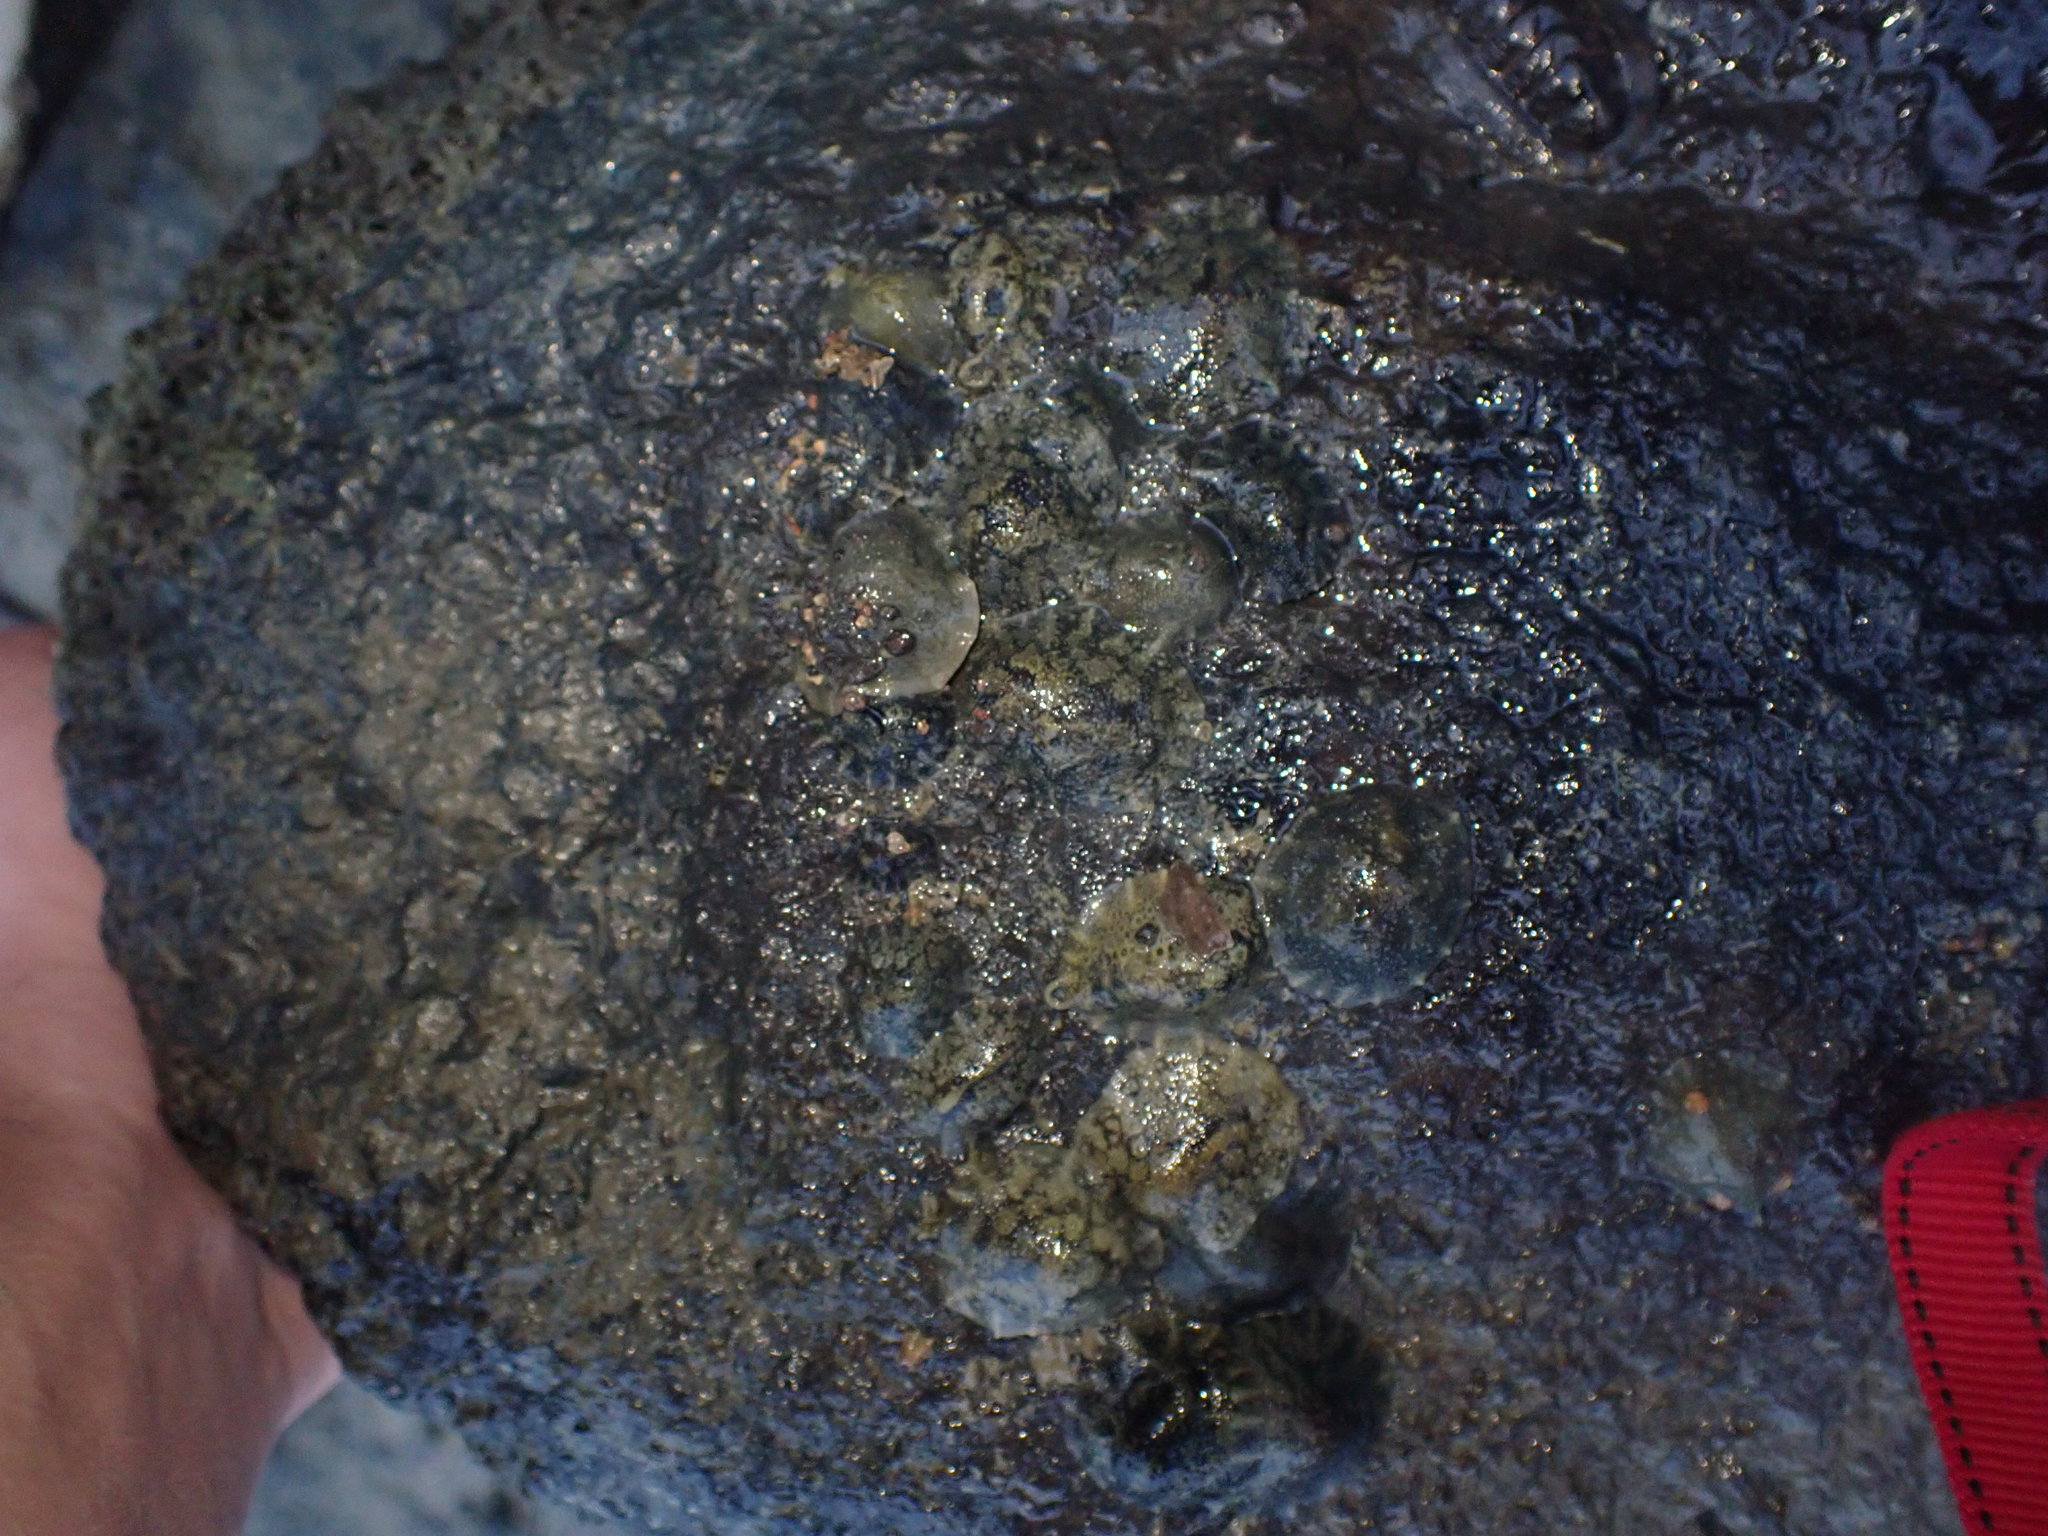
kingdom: Animalia
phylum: Mollusca
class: Gastropoda
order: Systellommatophora
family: Onchidiidae
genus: Onchidella
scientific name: Onchidella nigricans
